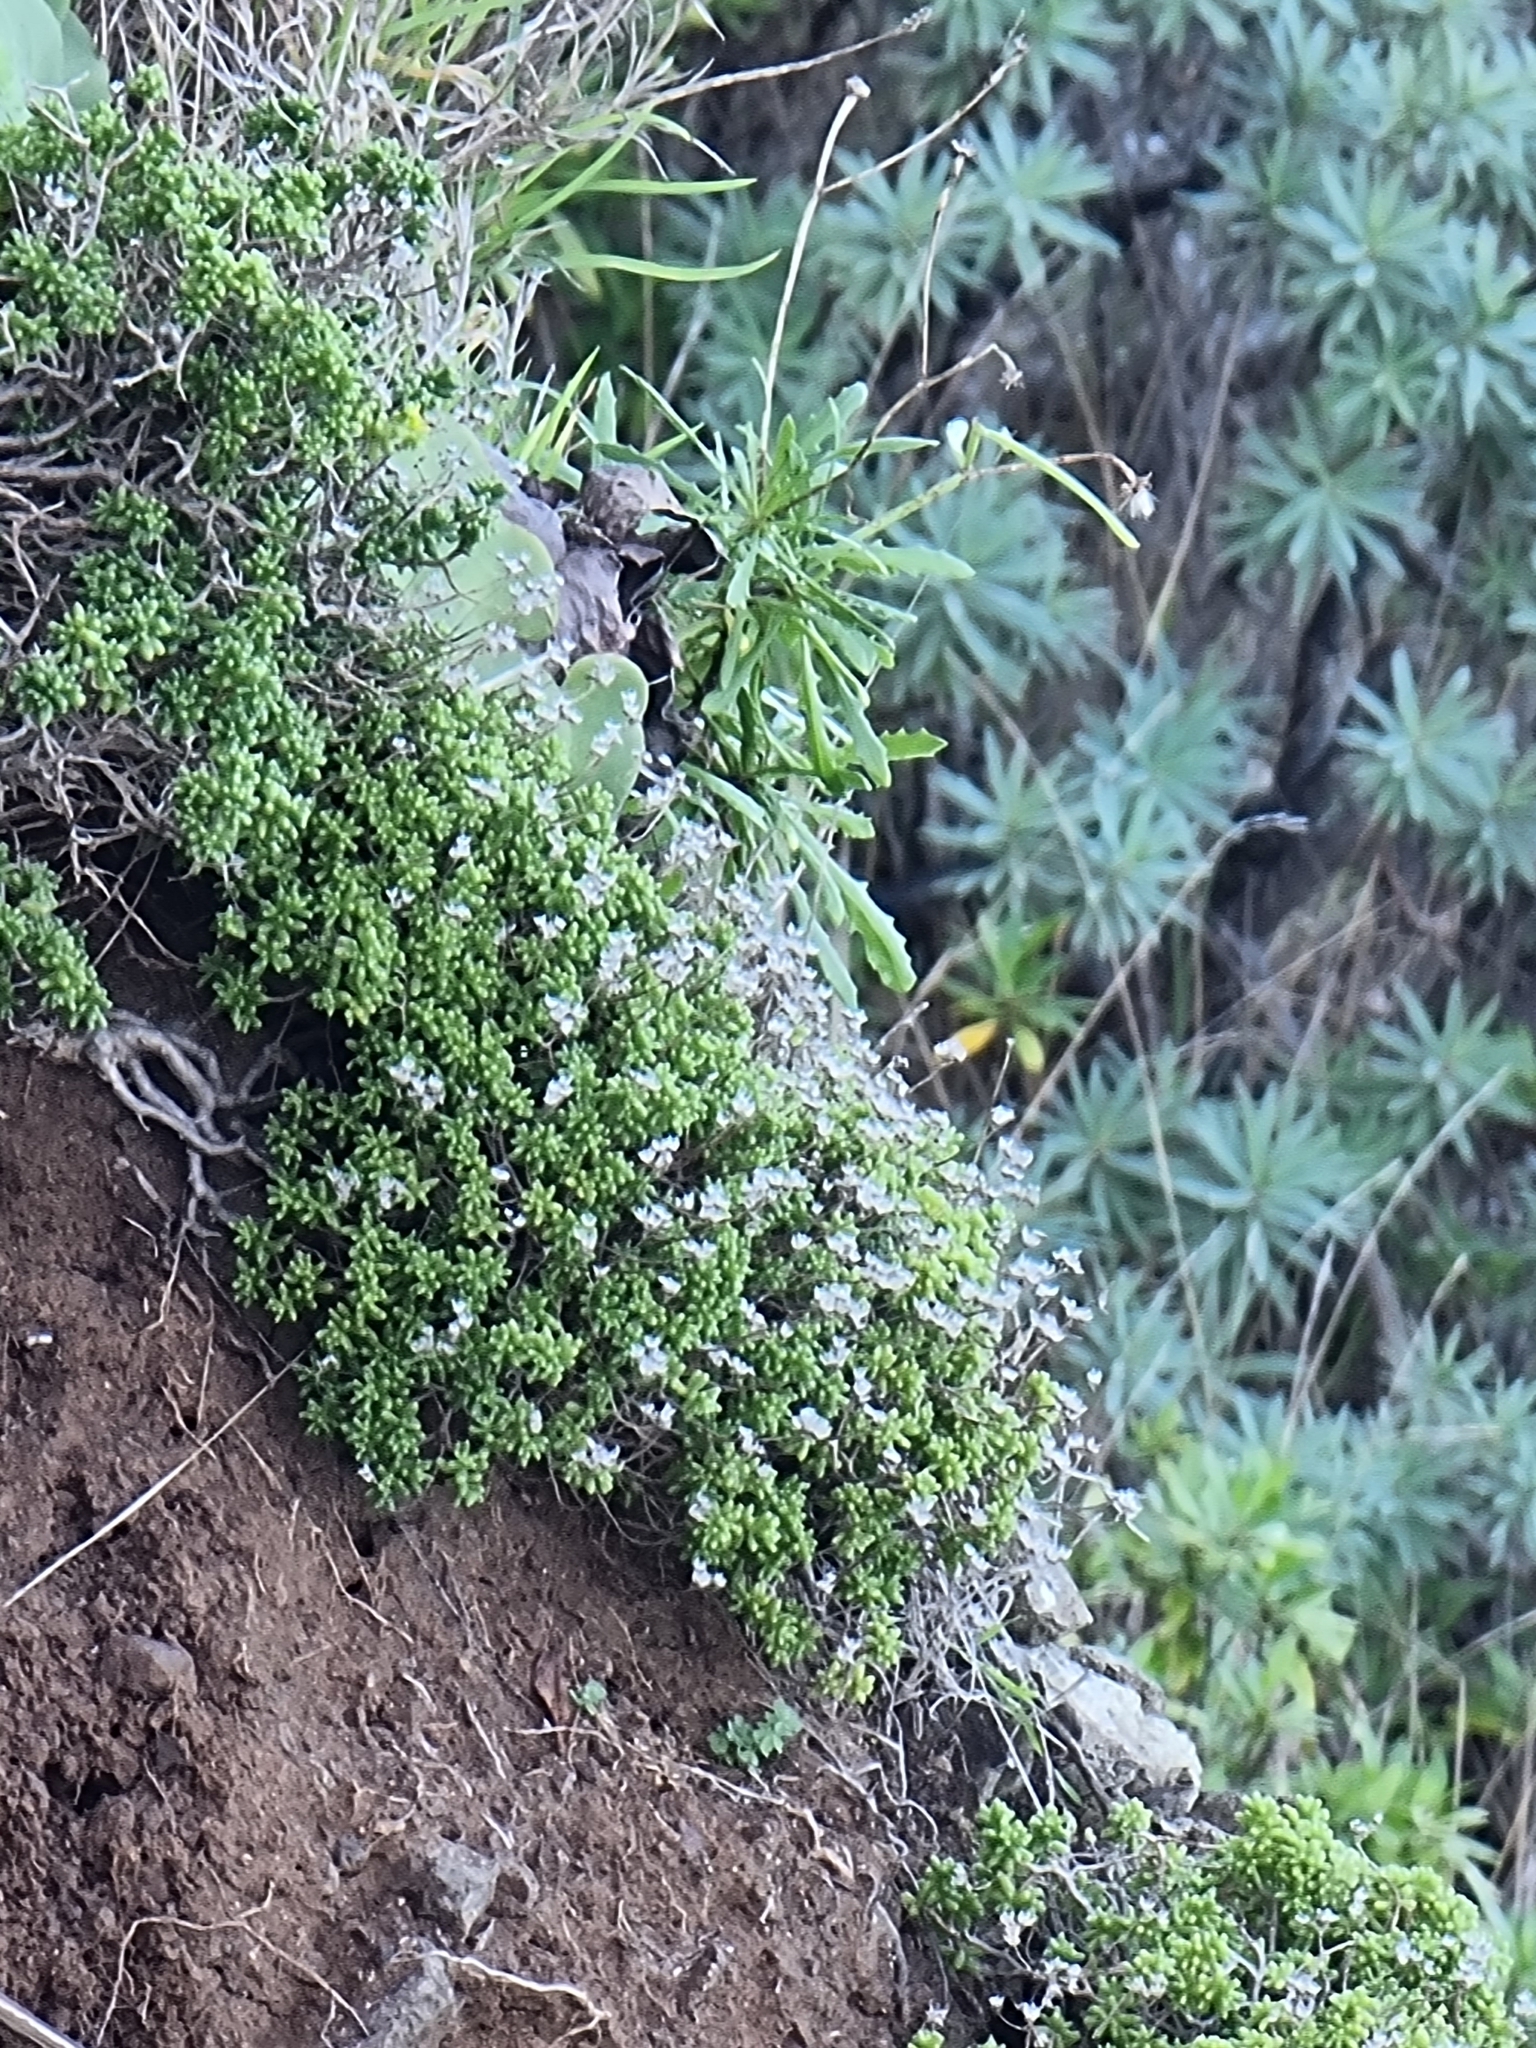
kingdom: Plantae
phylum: Tracheophyta
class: Magnoliopsida
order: Saxifragales
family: Crassulaceae
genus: Sedum
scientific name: Sedum brissemoretii
